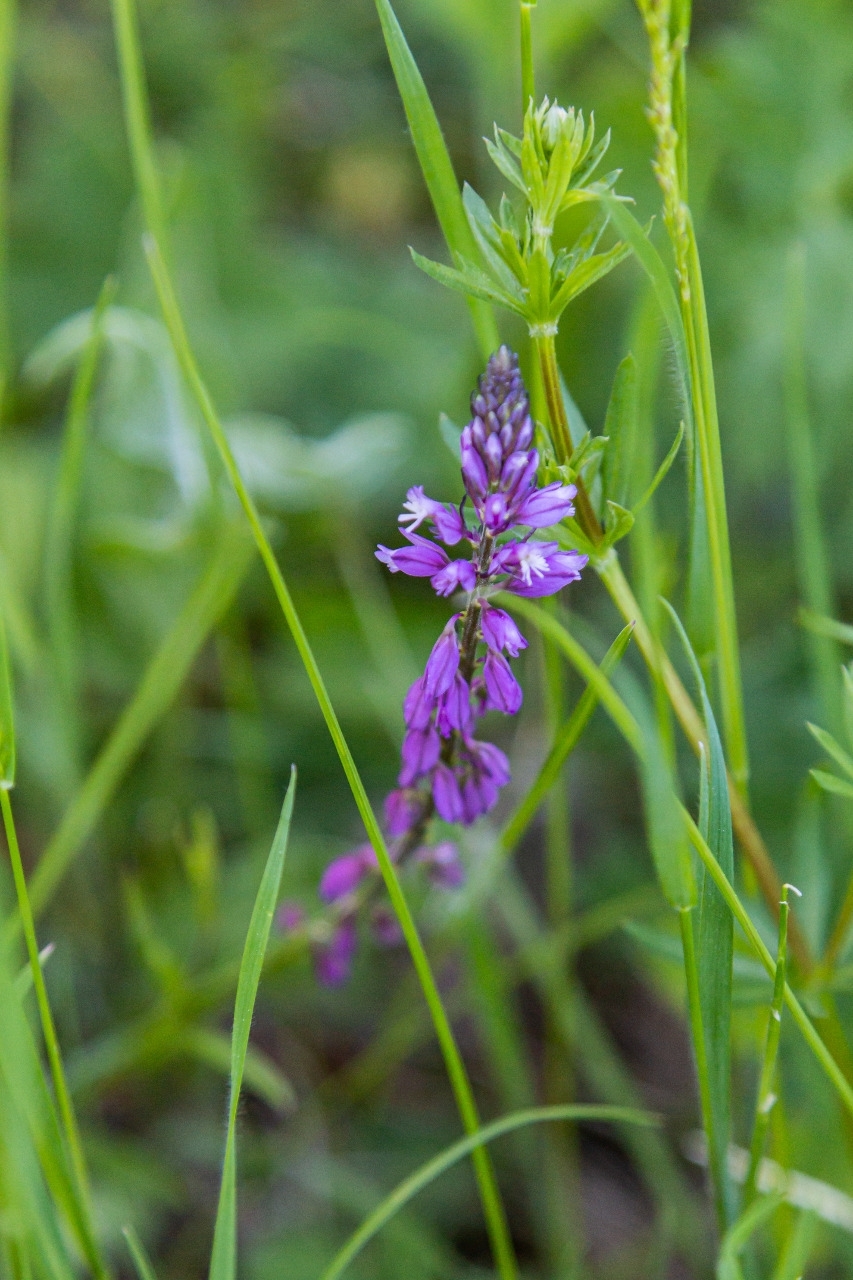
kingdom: Plantae
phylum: Tracheophyta
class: Magnoliopsida
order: Fabales
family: Polygalaceae
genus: Polygala
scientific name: Polygala comosa
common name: Tufted milkwort
